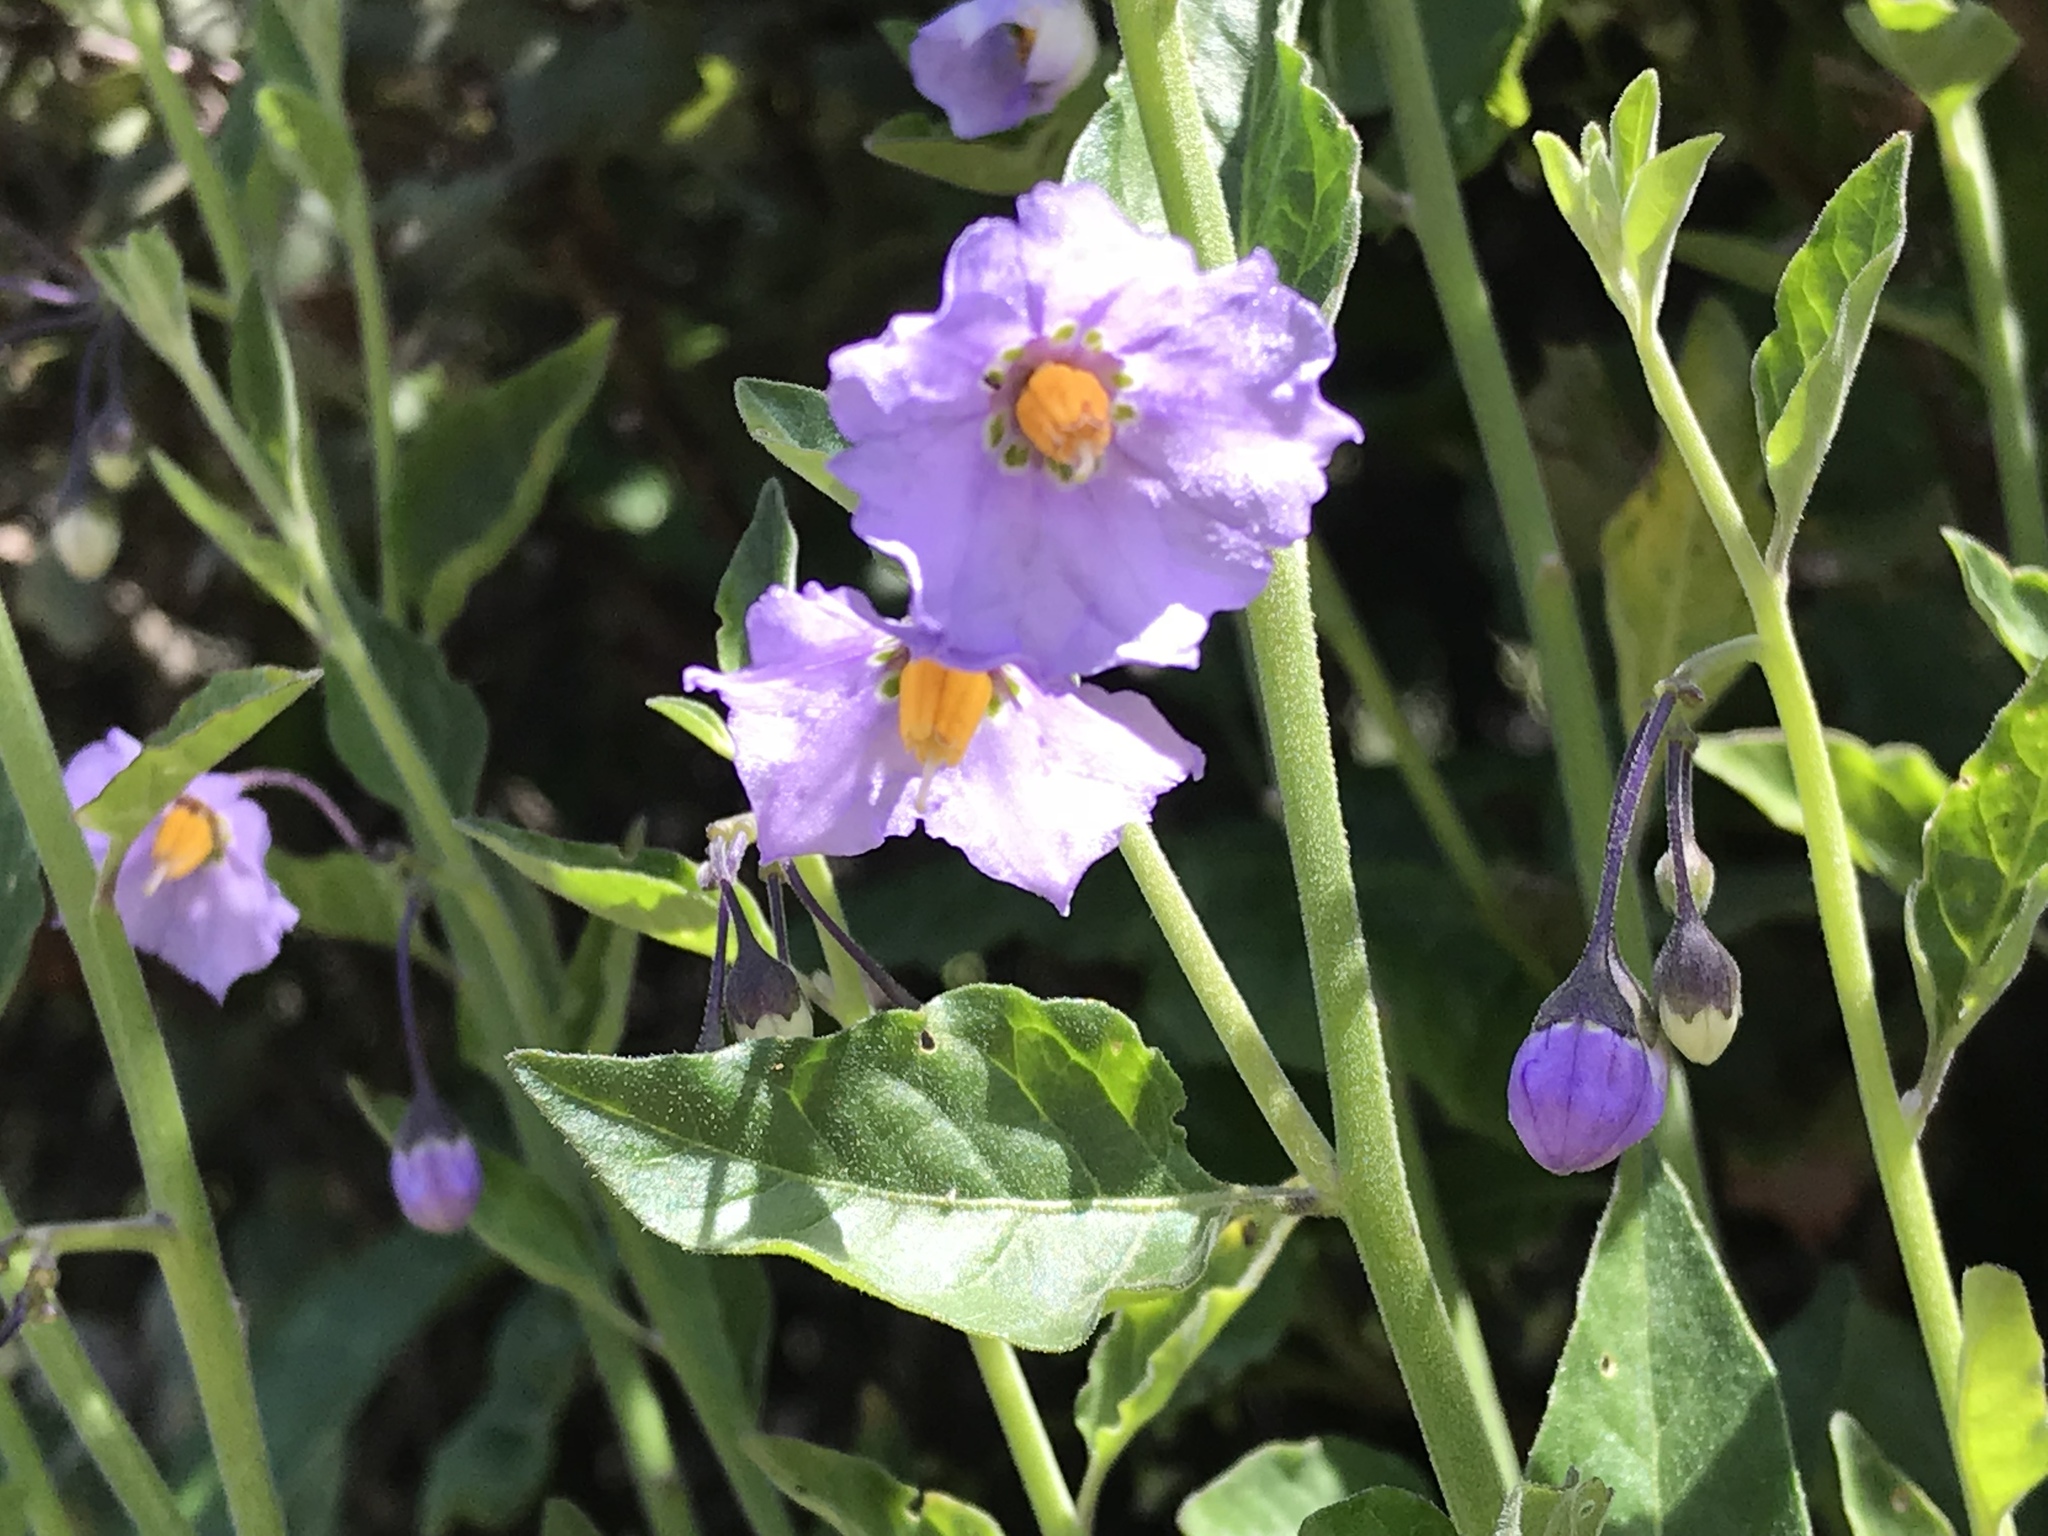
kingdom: Plantae
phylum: Tracheophyta
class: Magnoliopsida
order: Solanales
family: Solanaceae
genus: Solanum
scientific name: Solanum umbelliferum
